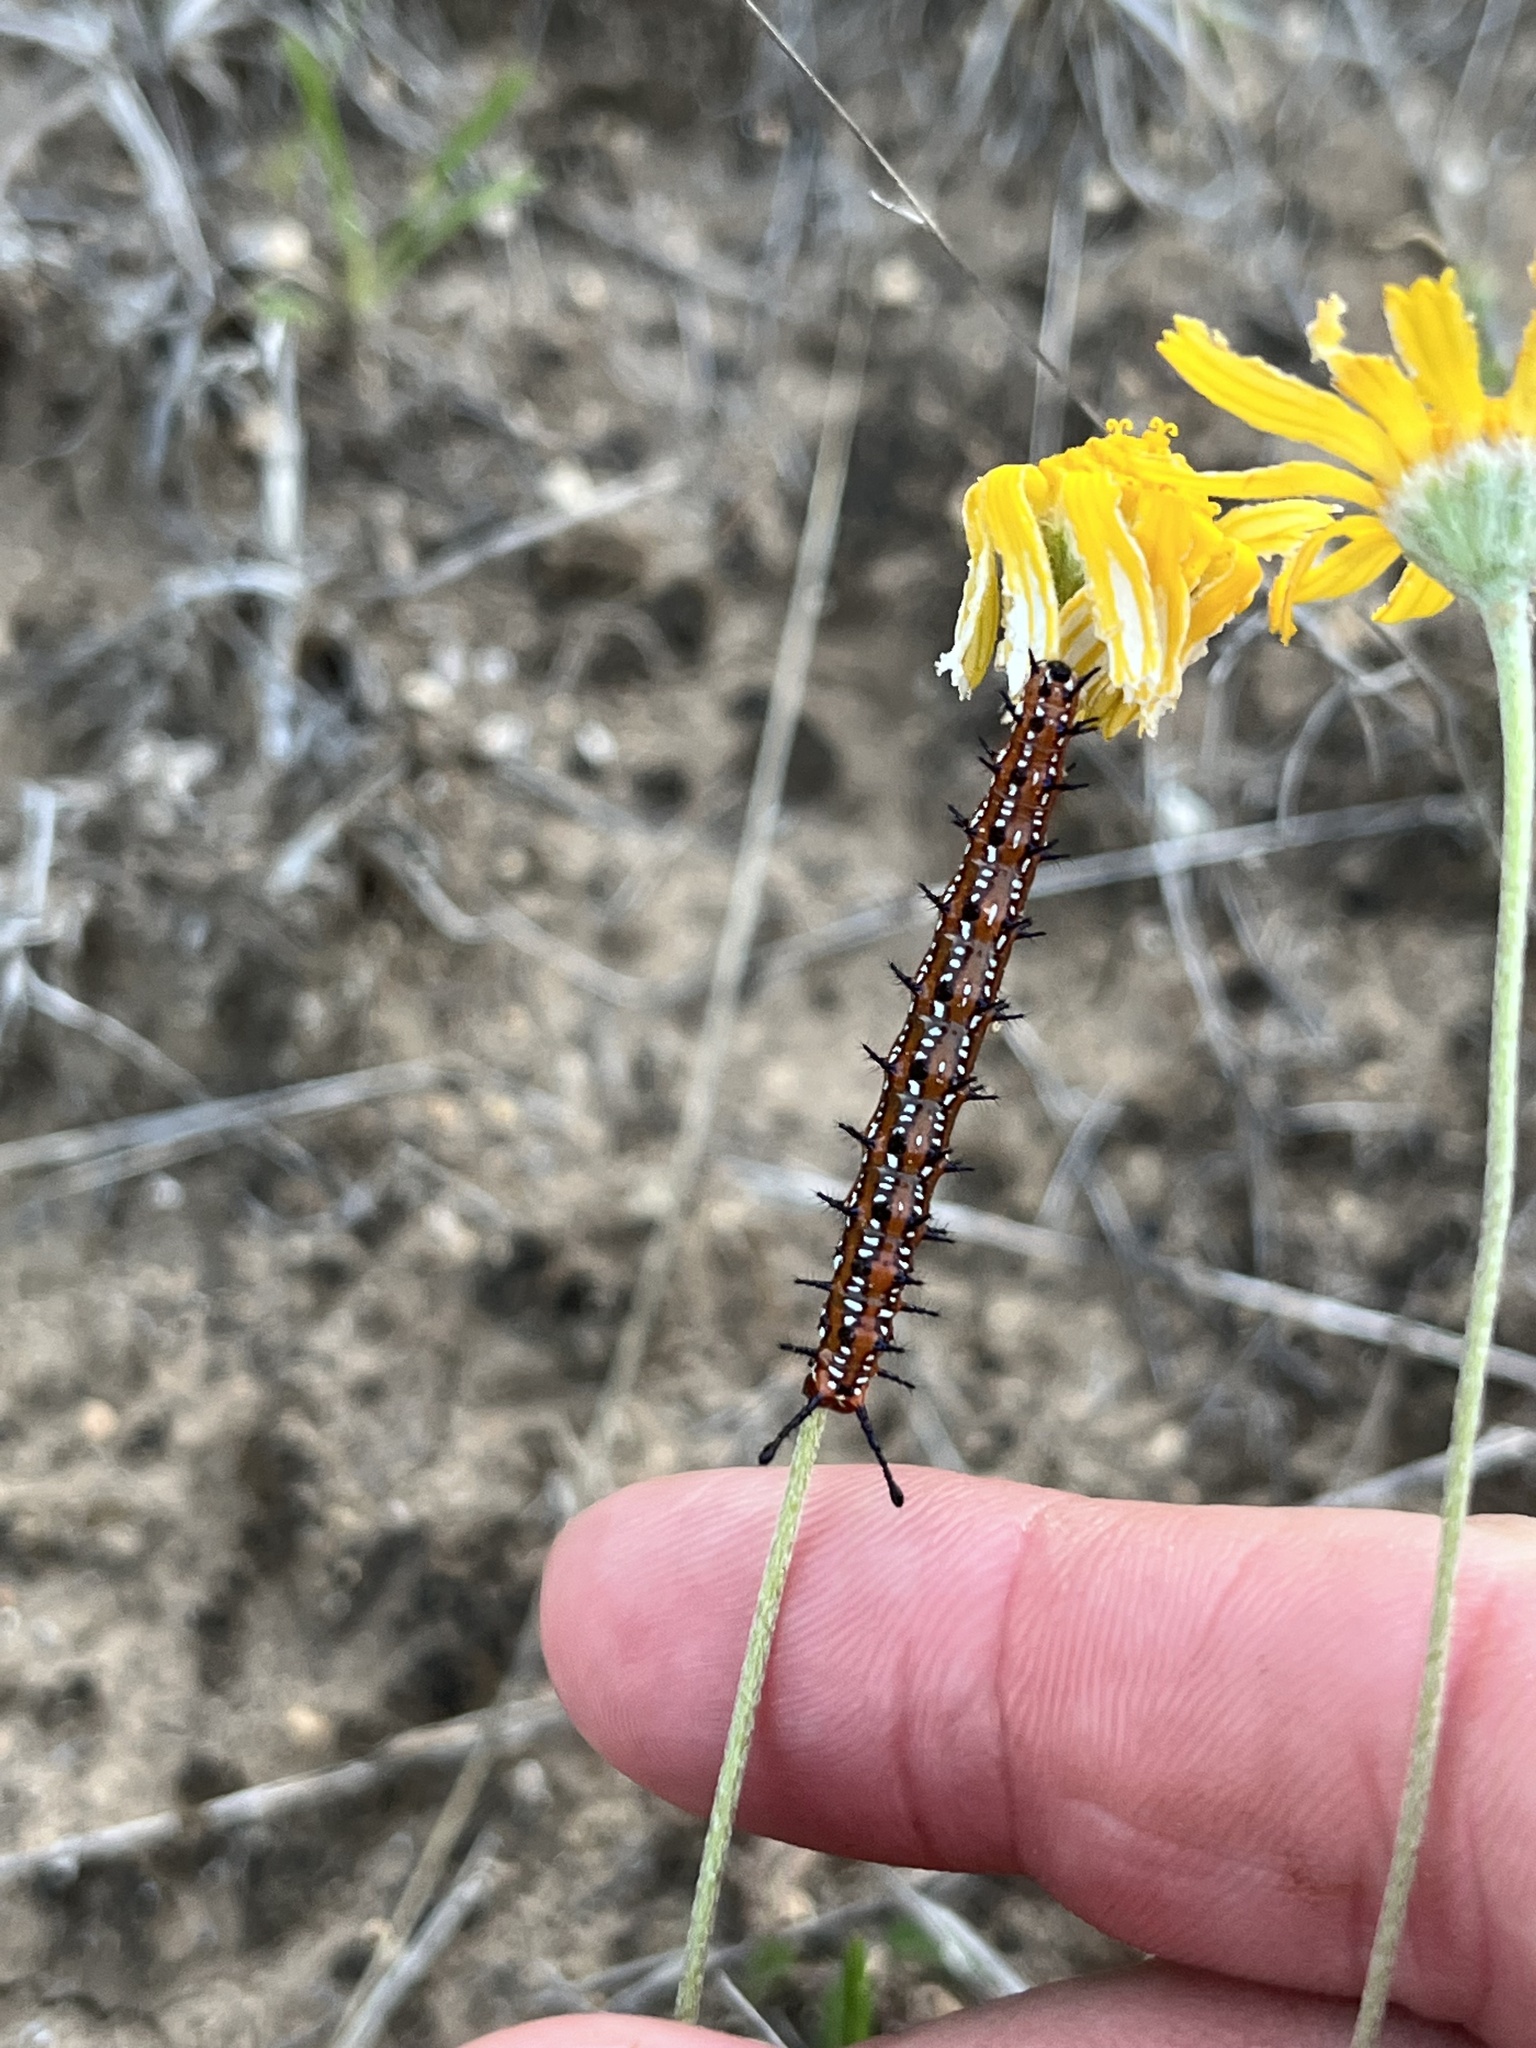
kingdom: Animalia
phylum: Arthropoda
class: Insecta
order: Lepidoptera
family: Nymphalidae
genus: Euptoieta
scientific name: Euptoieta claudia
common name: Variegated fritillary
